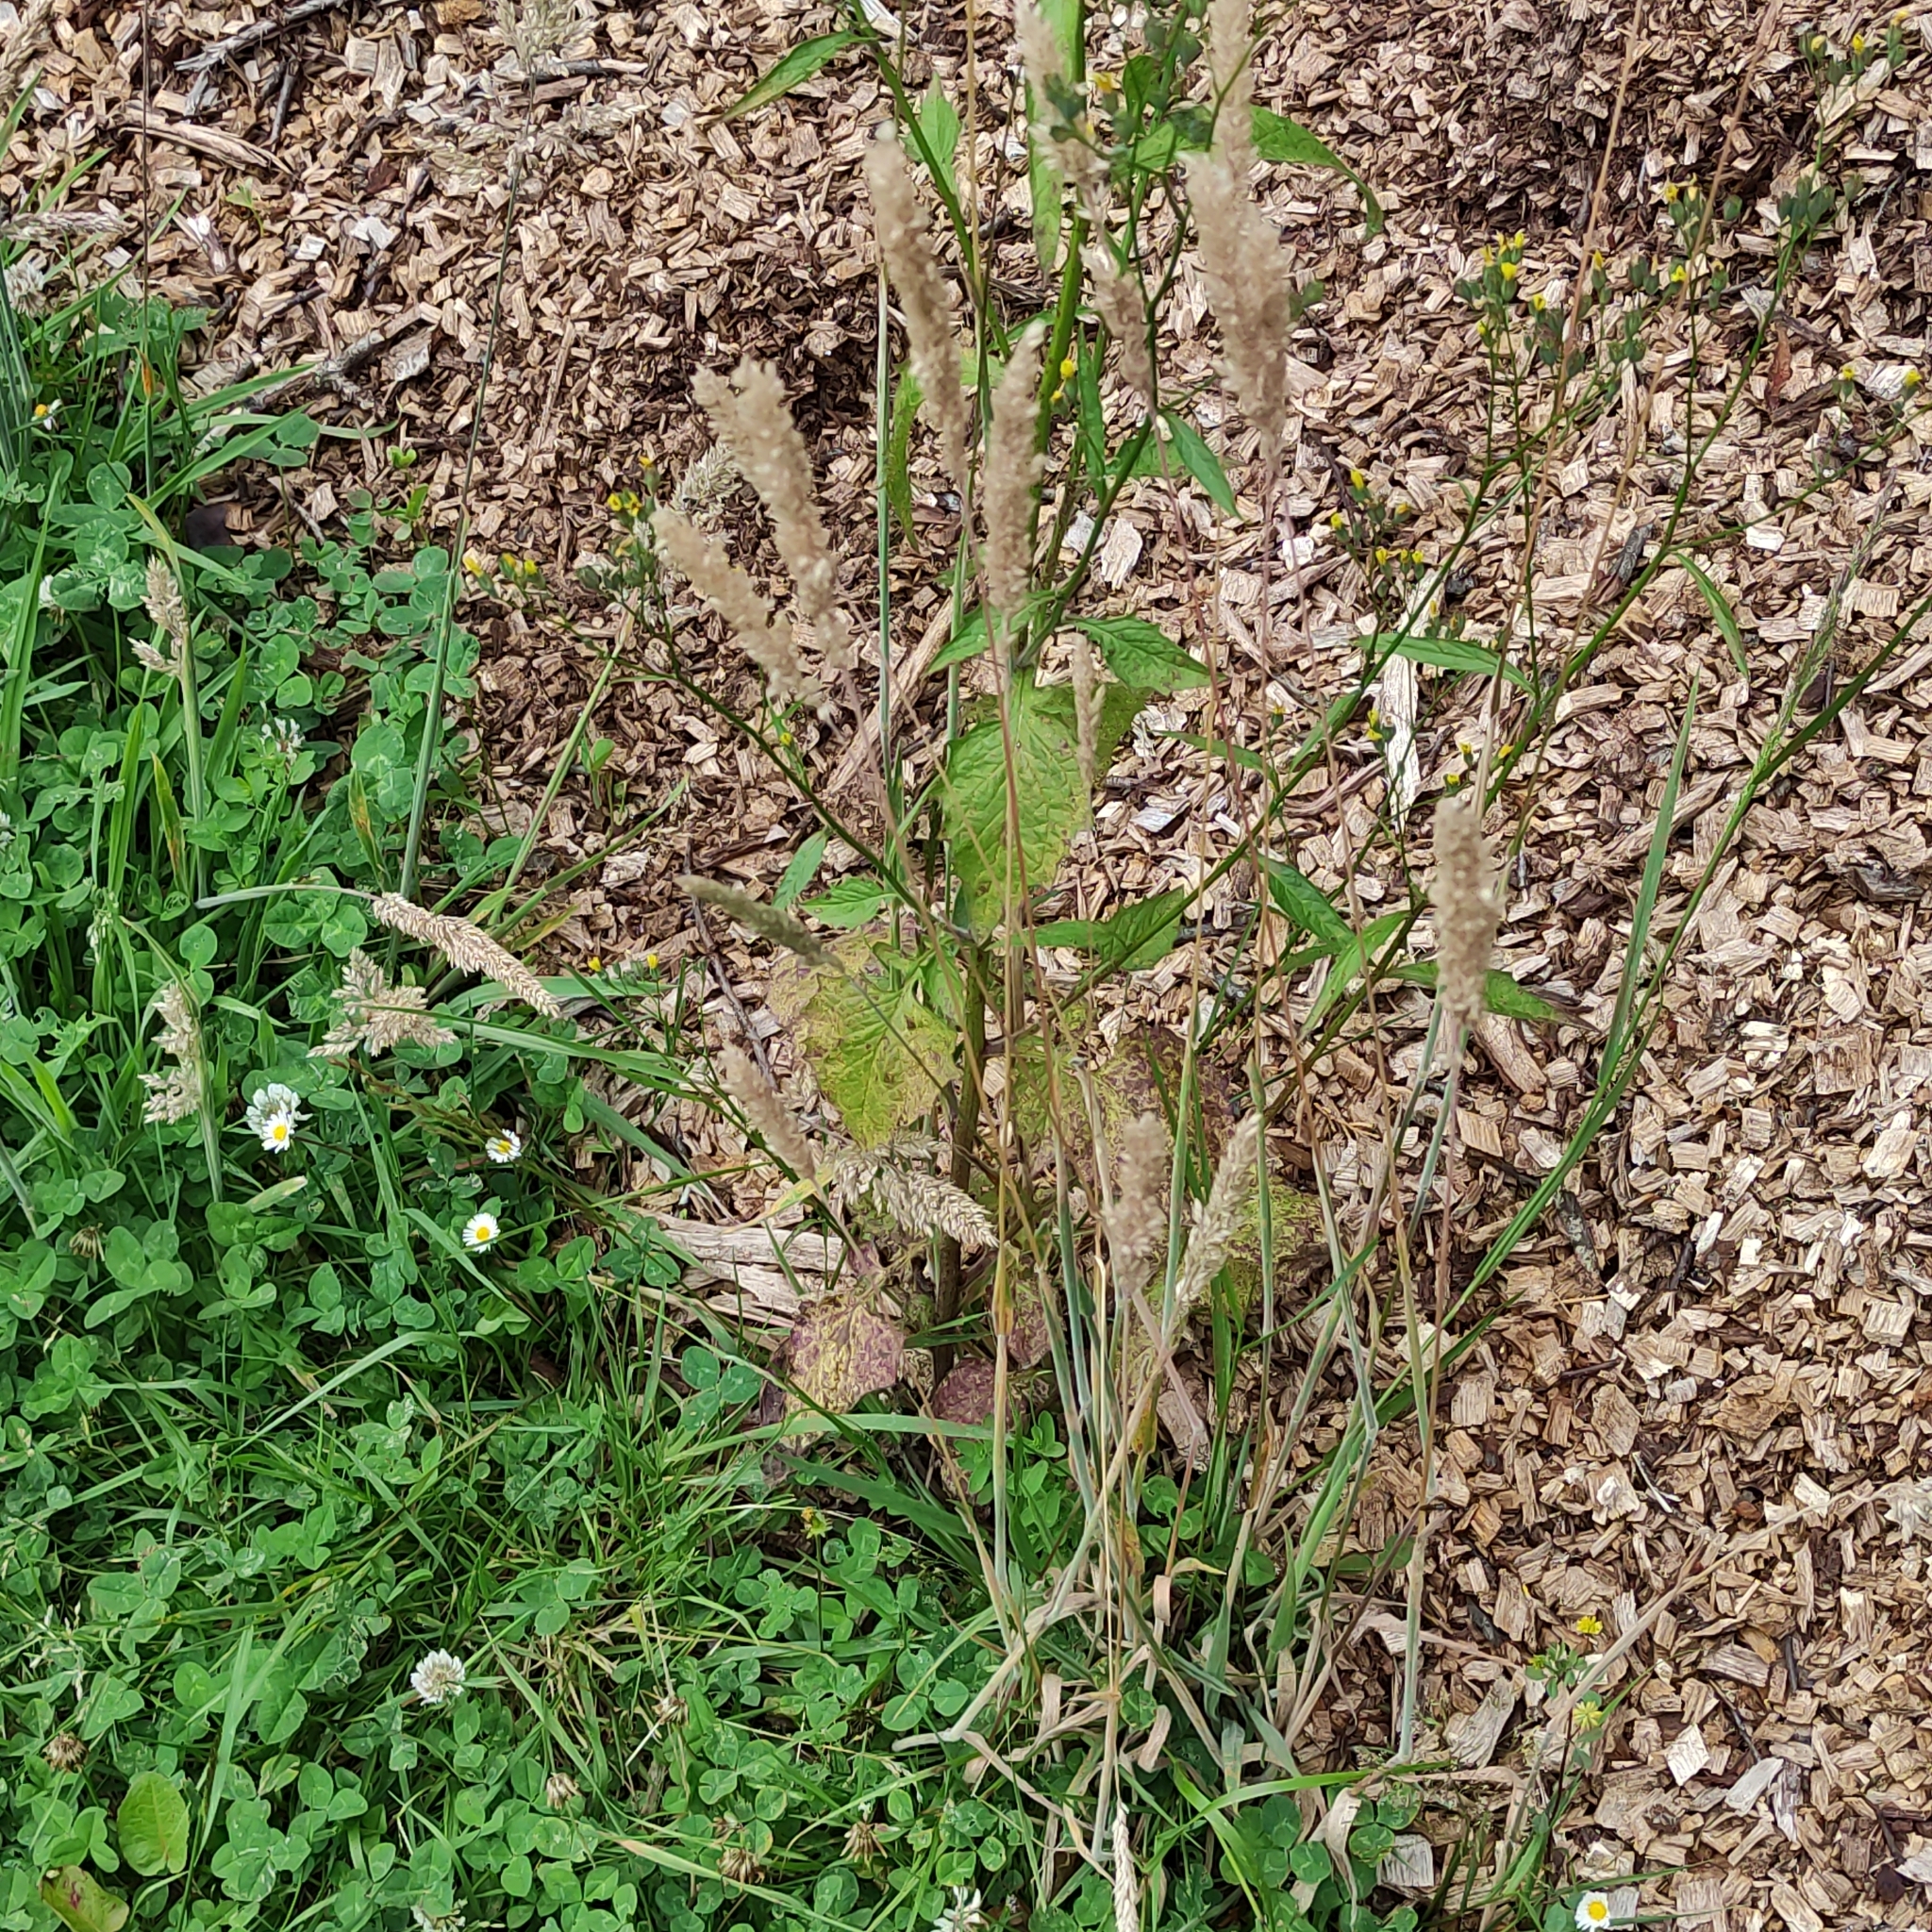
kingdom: Plantae
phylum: Tracheophyta
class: Liliopsida
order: Poales
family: Poaceae
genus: Holcus
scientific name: Holcus lanatus
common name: Yorkshire-fog
